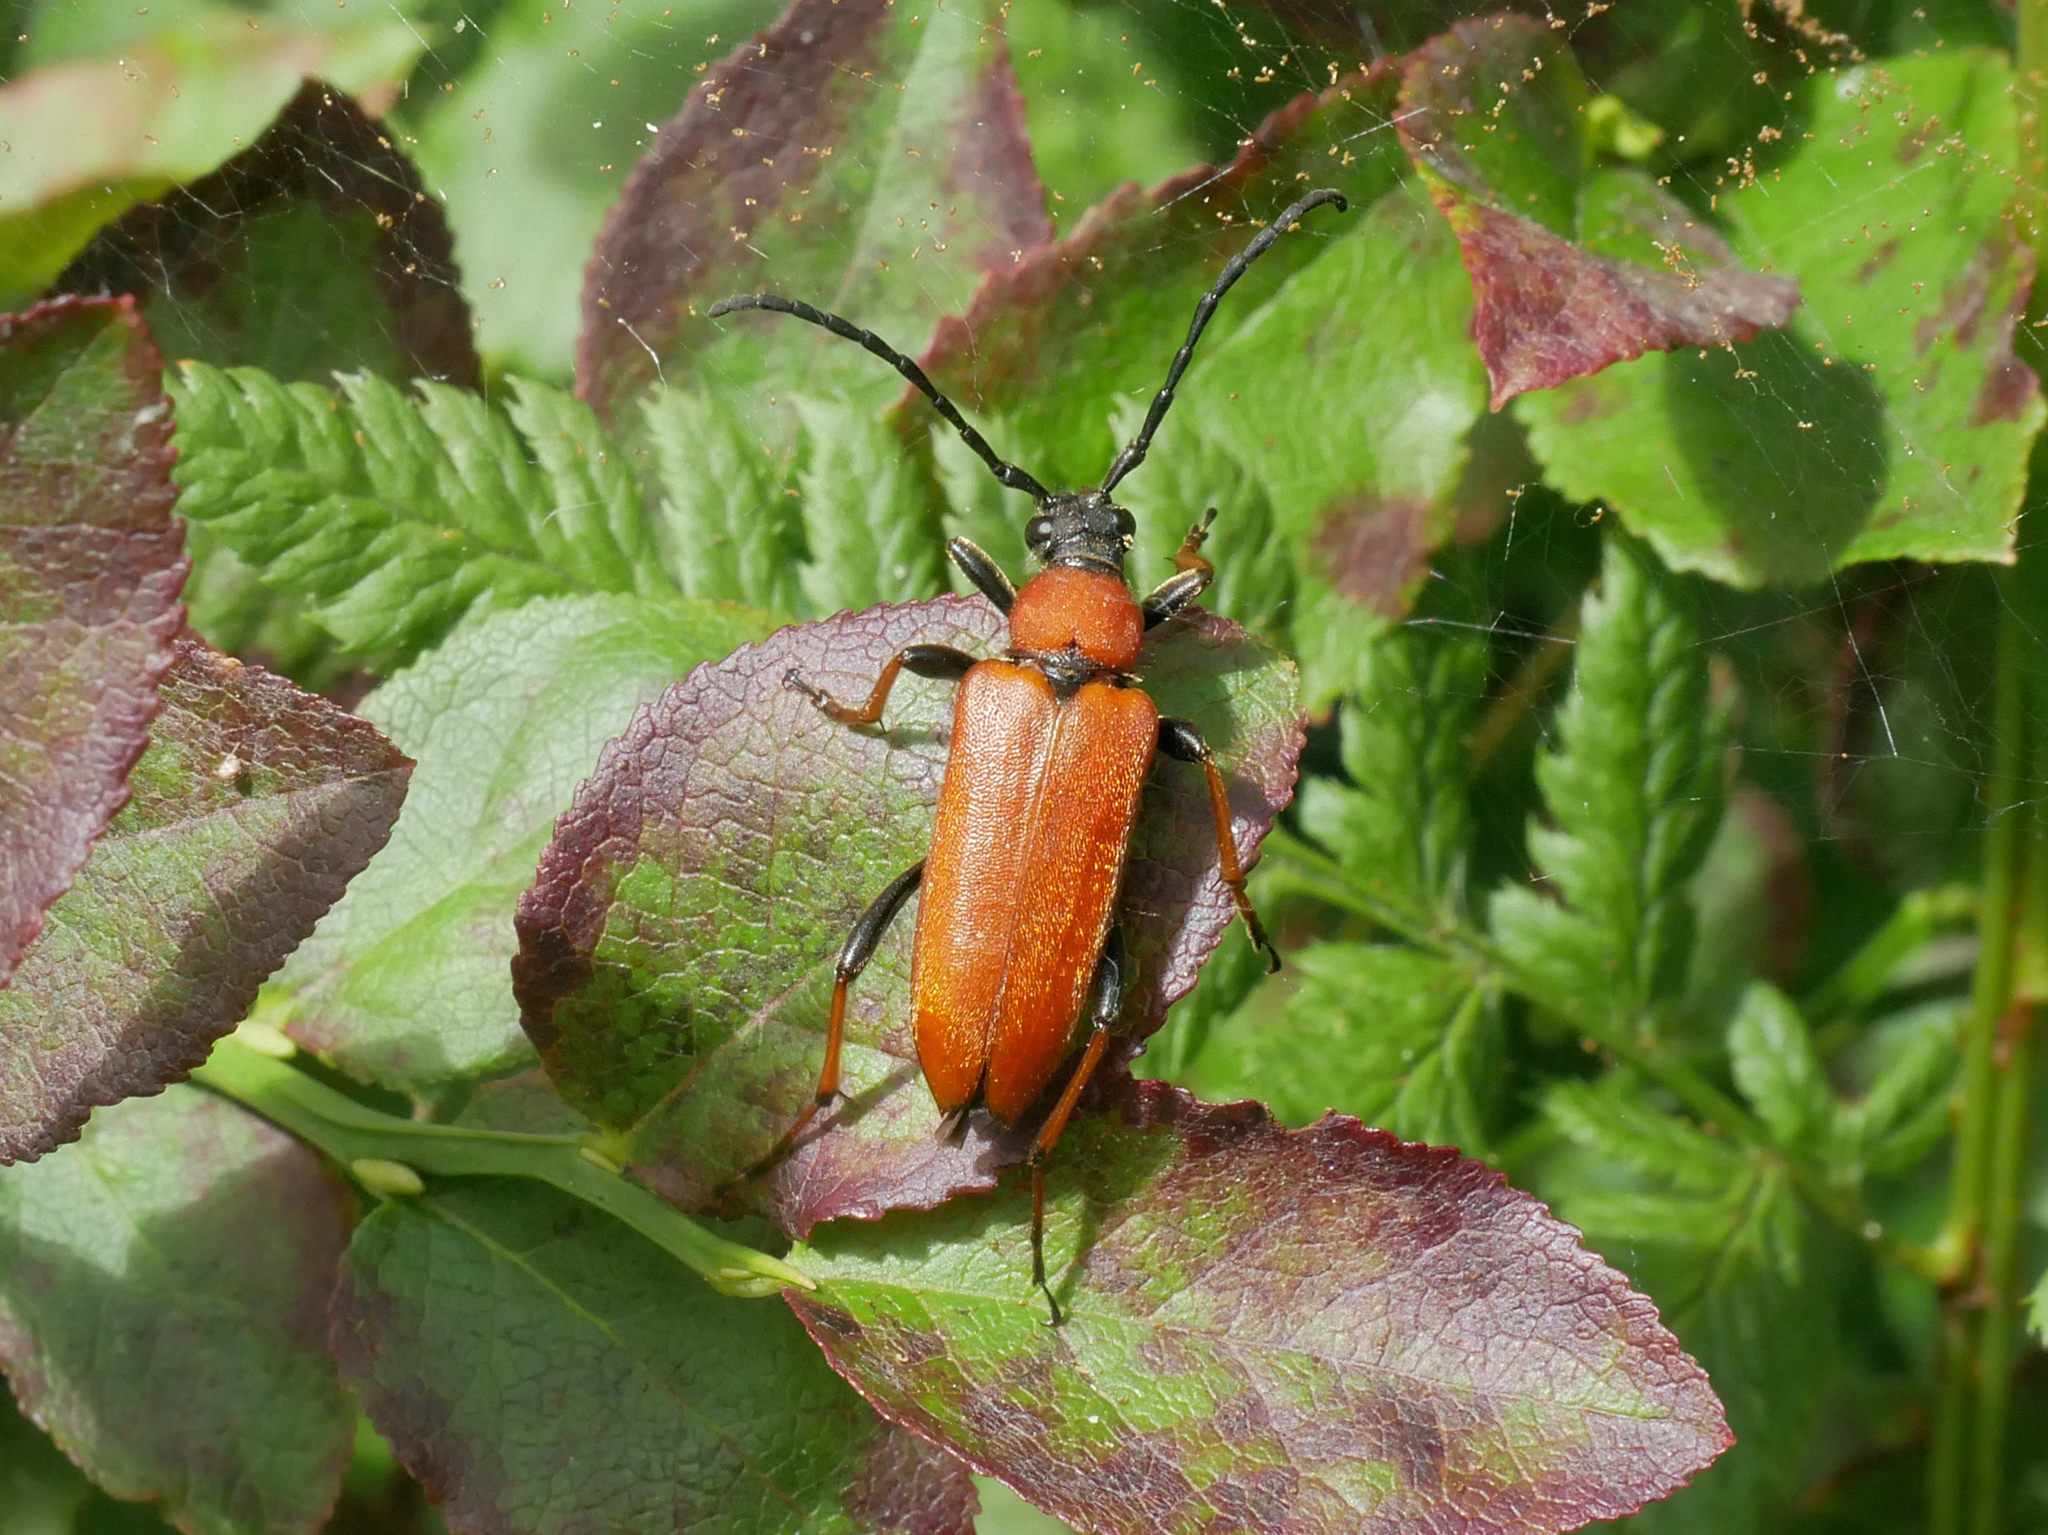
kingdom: Animalia
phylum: Arthropoda
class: Insecta
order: Coleoptera
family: Cerambycidae
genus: Stictoleptura
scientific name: Stictoleptura rubra
